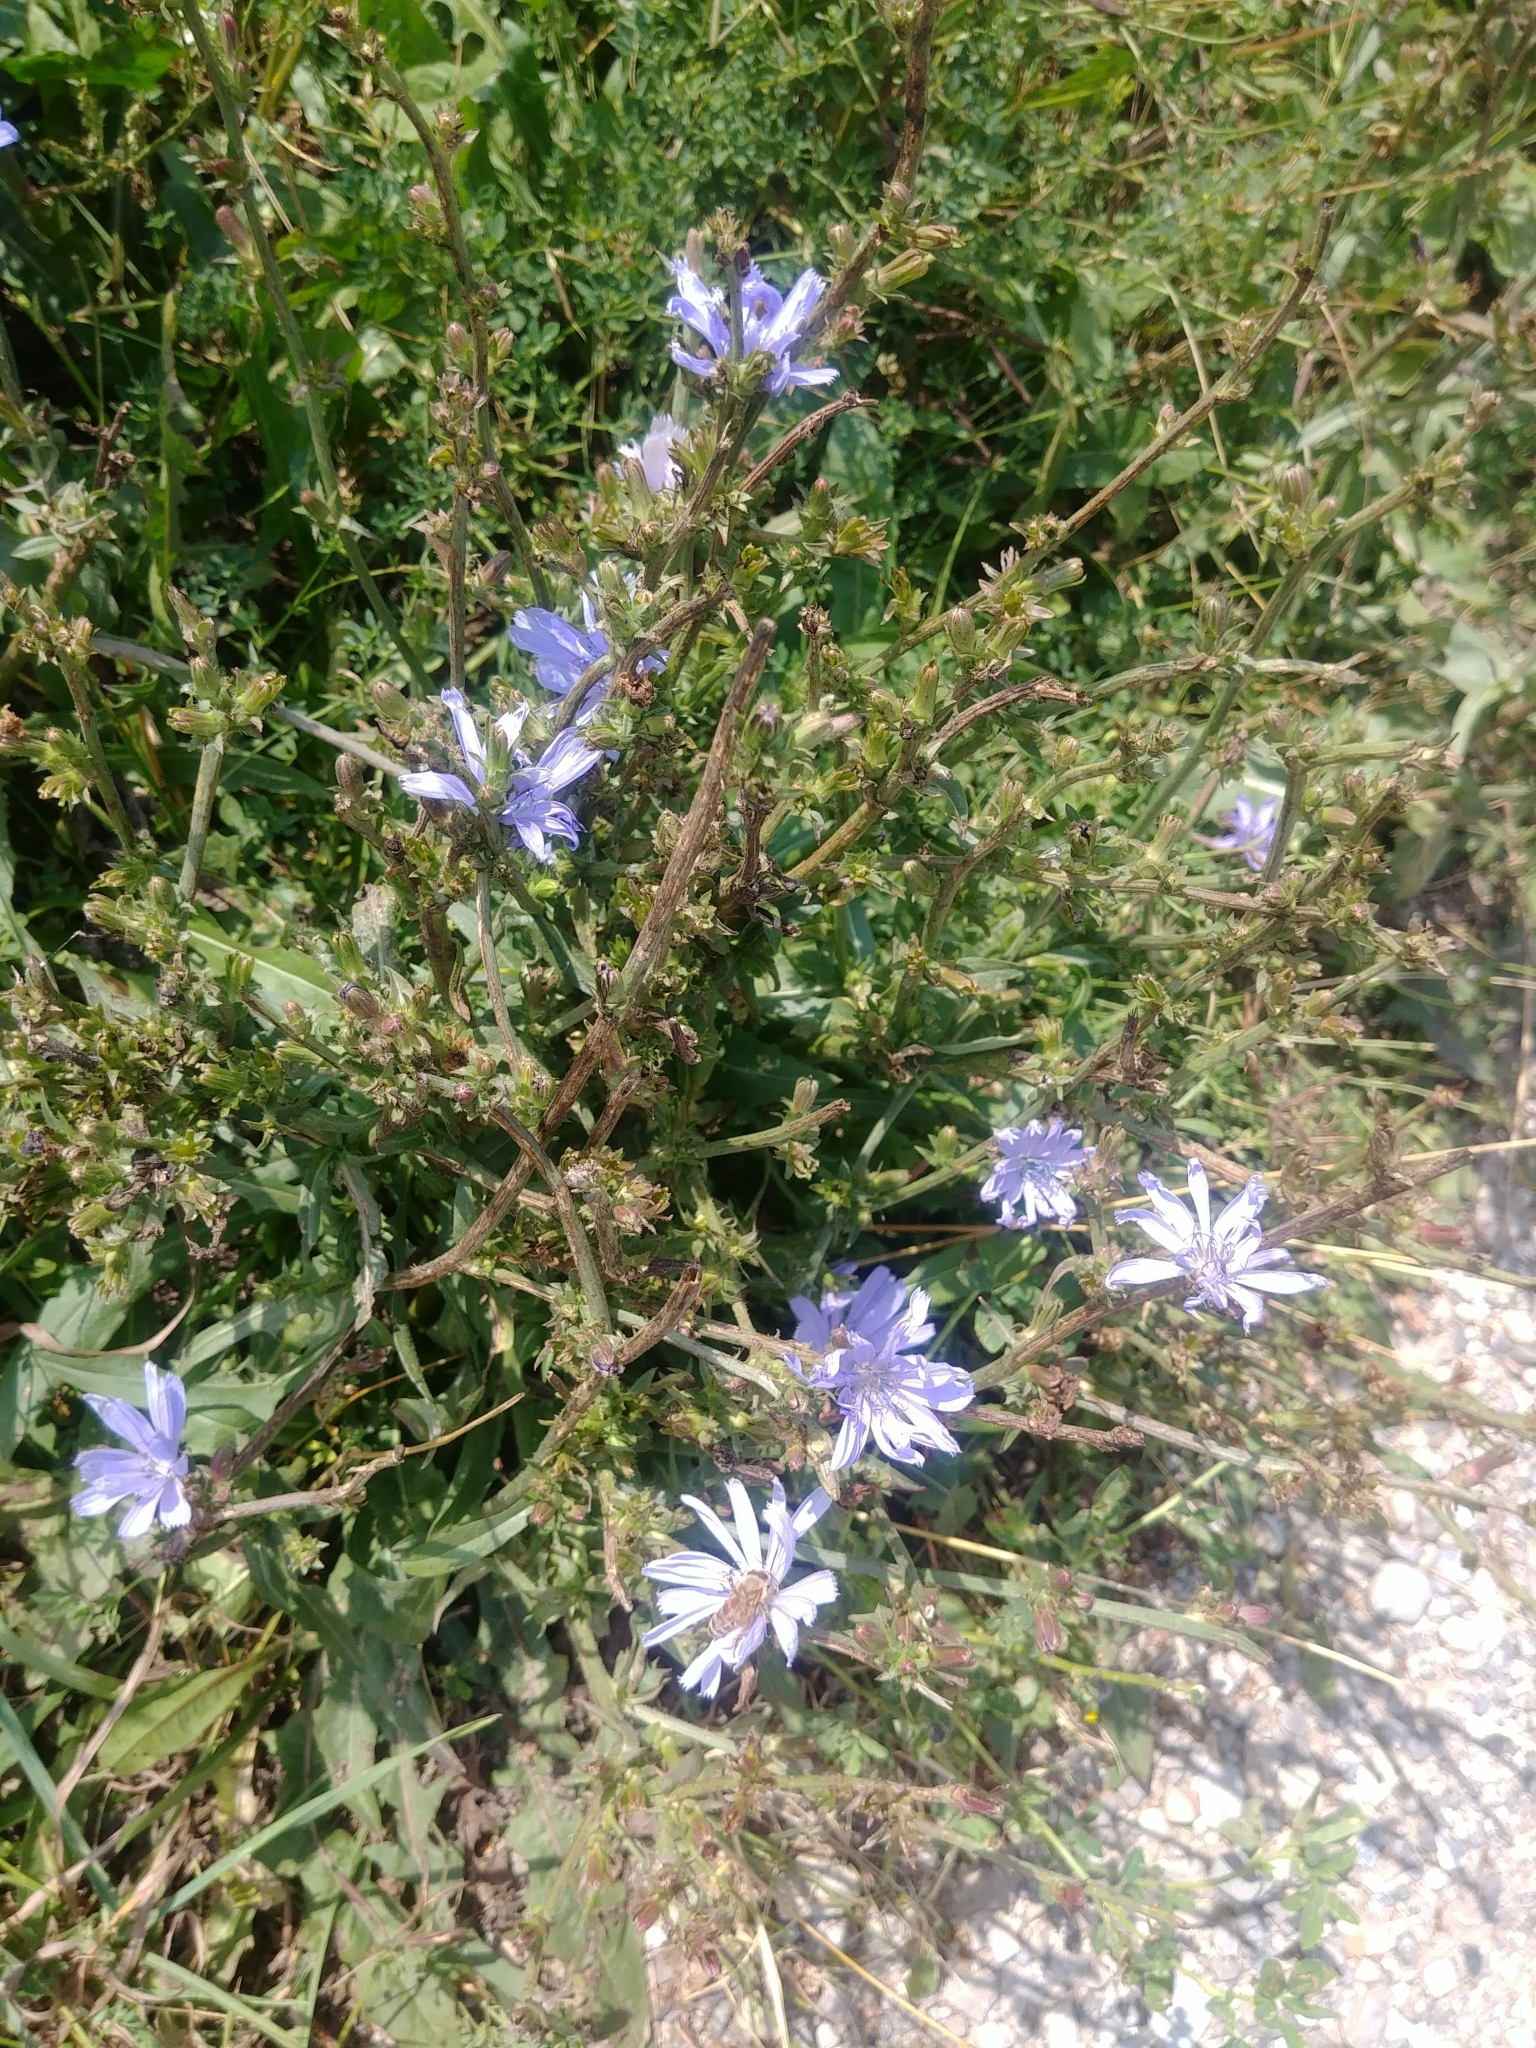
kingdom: Plantae
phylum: Tracheophyta
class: Magnoliopsida
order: Asterales
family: Asteraceae
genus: Cichorium
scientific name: Cichorium intybus
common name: Chicory
